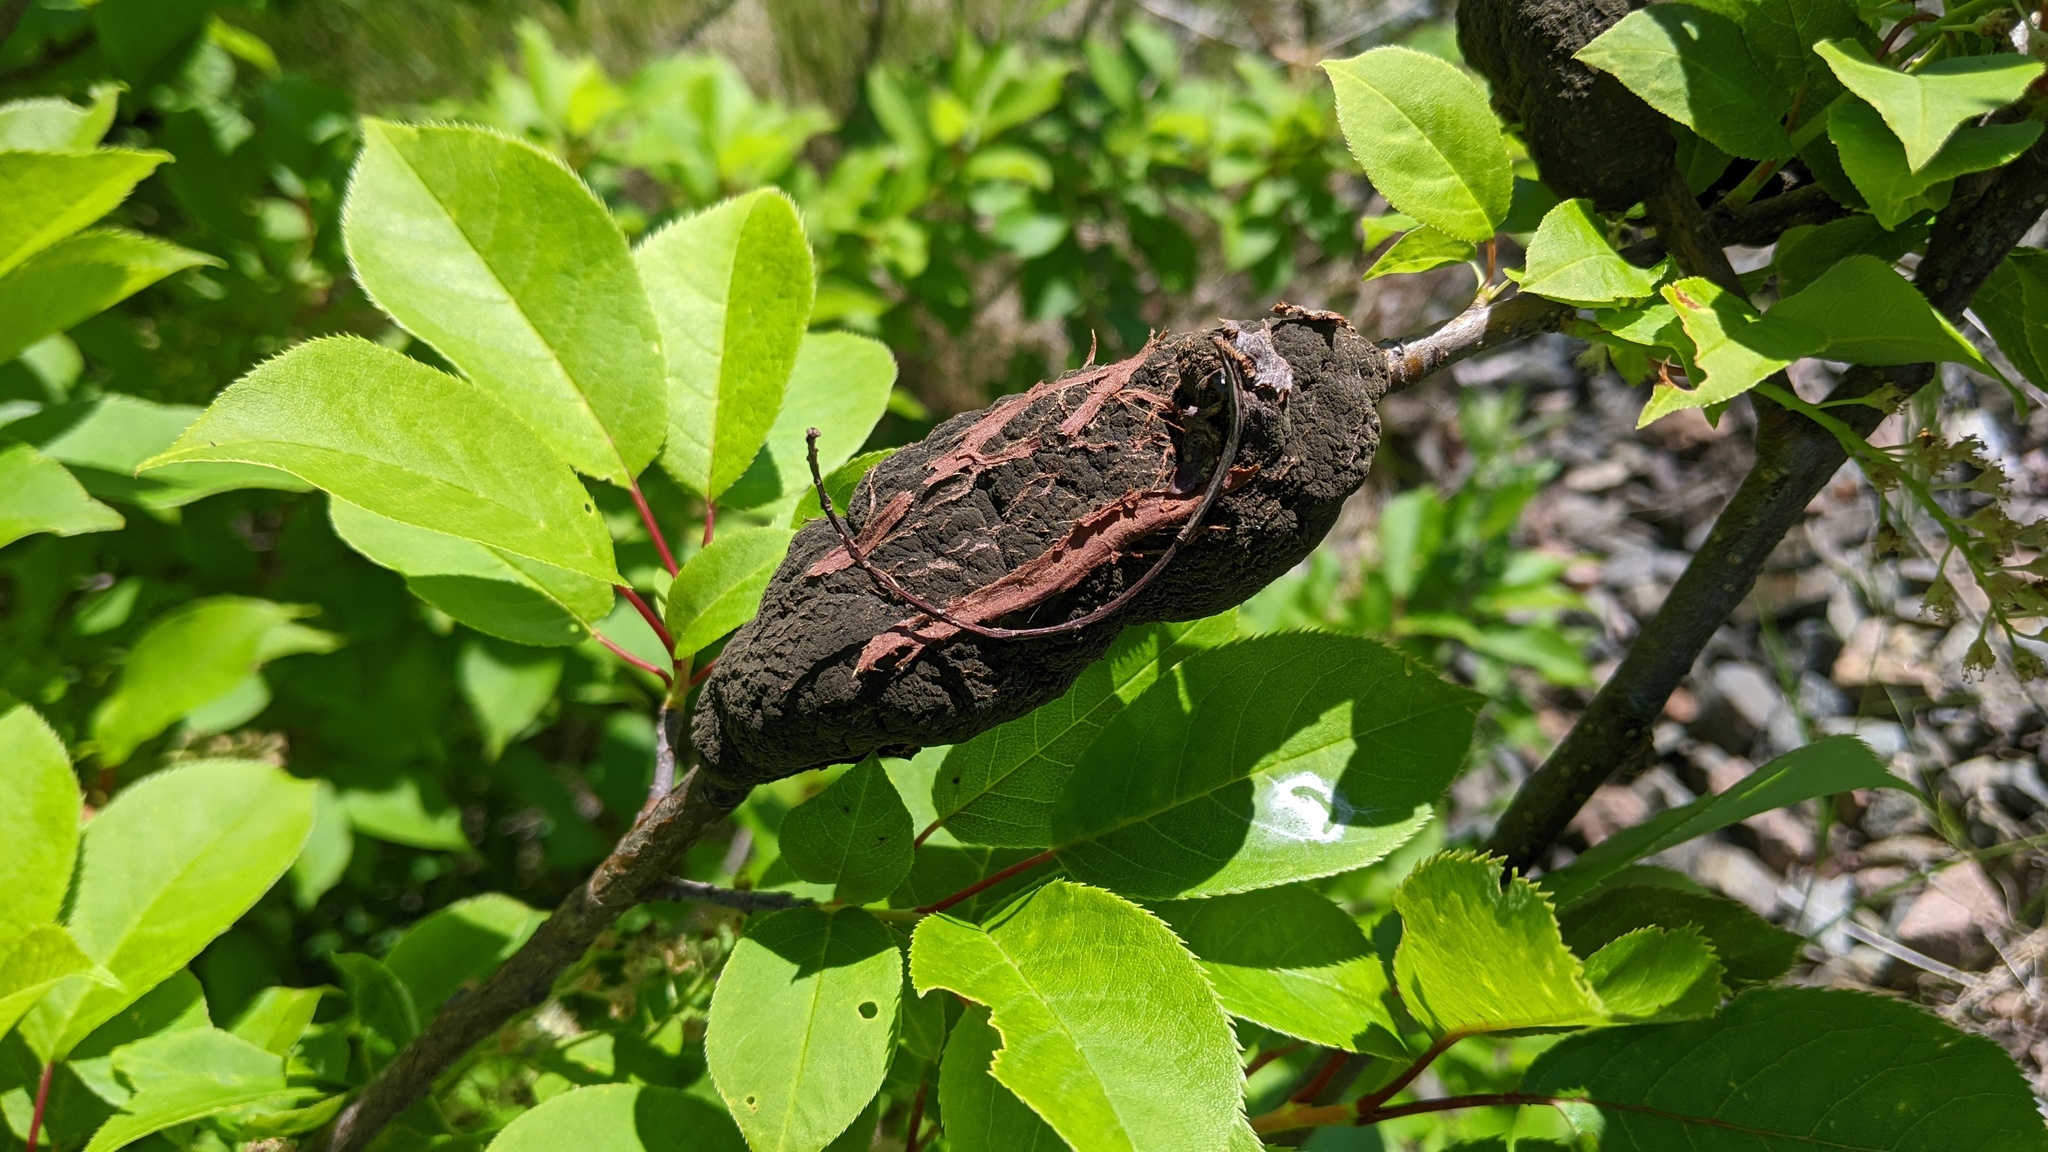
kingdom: Fungi
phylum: Ascomycota
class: Dothideomycetes
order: Venturiales
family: Venturiaceae
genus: Apiosporina
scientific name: Apiosporina morbosa
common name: Black knot
